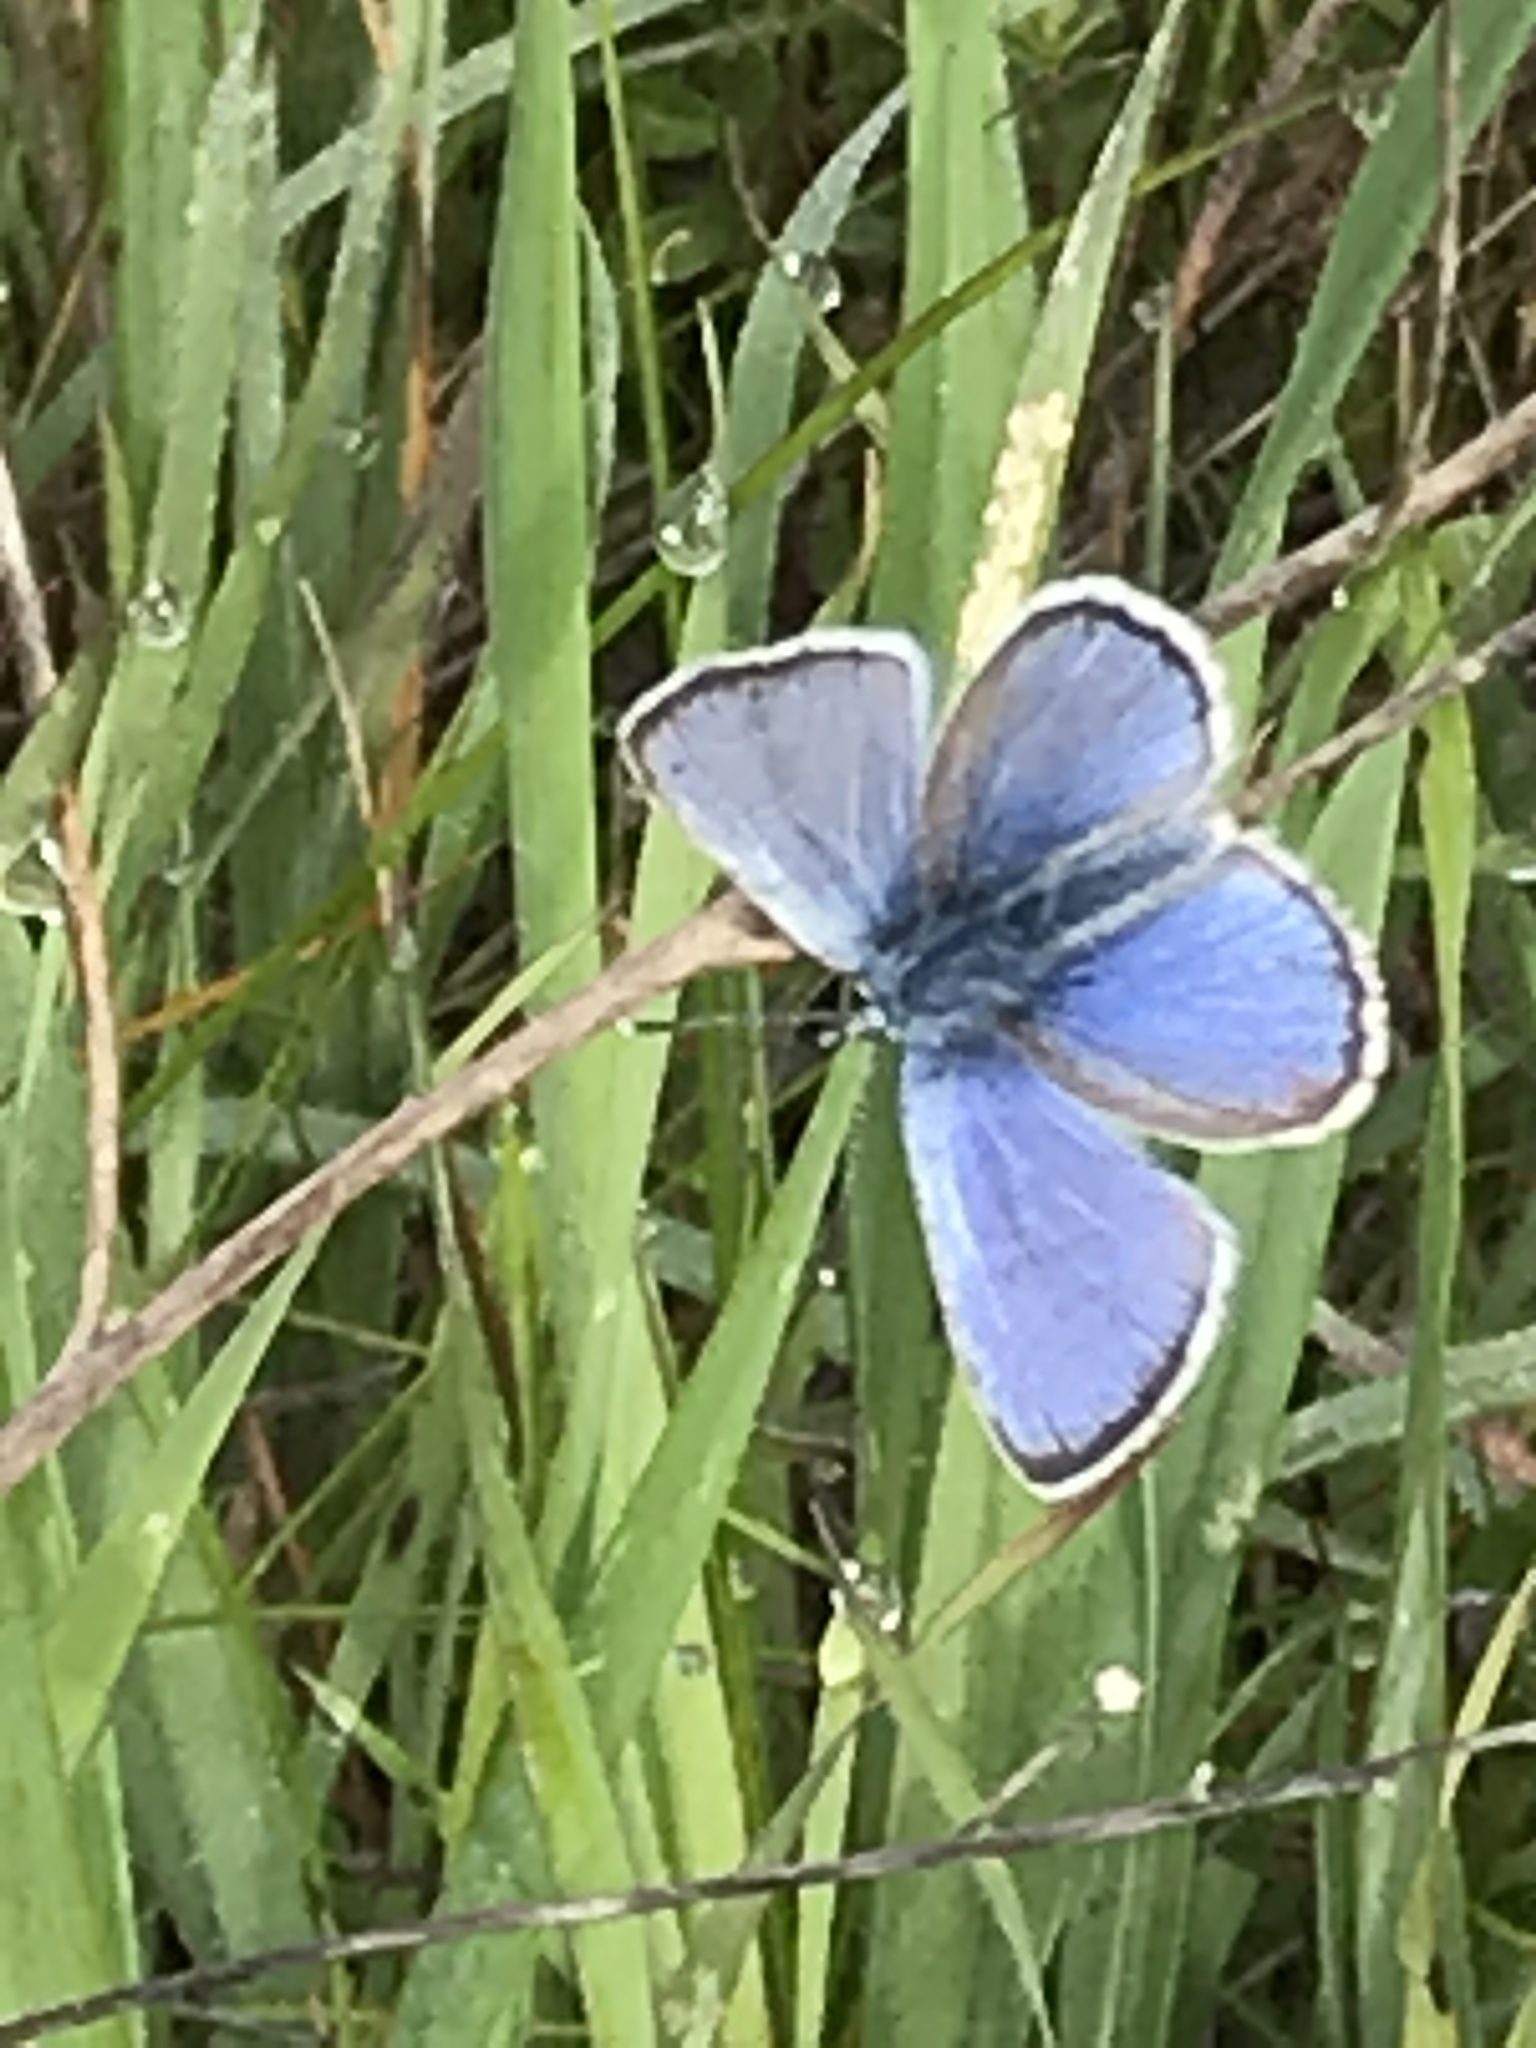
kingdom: Animalia
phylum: Arthropoda
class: Insecta
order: Lepidoptera
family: Lycaenidae
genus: Glaucopsyche
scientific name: Glaucopsyche lygdamus
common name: Silvery blue
